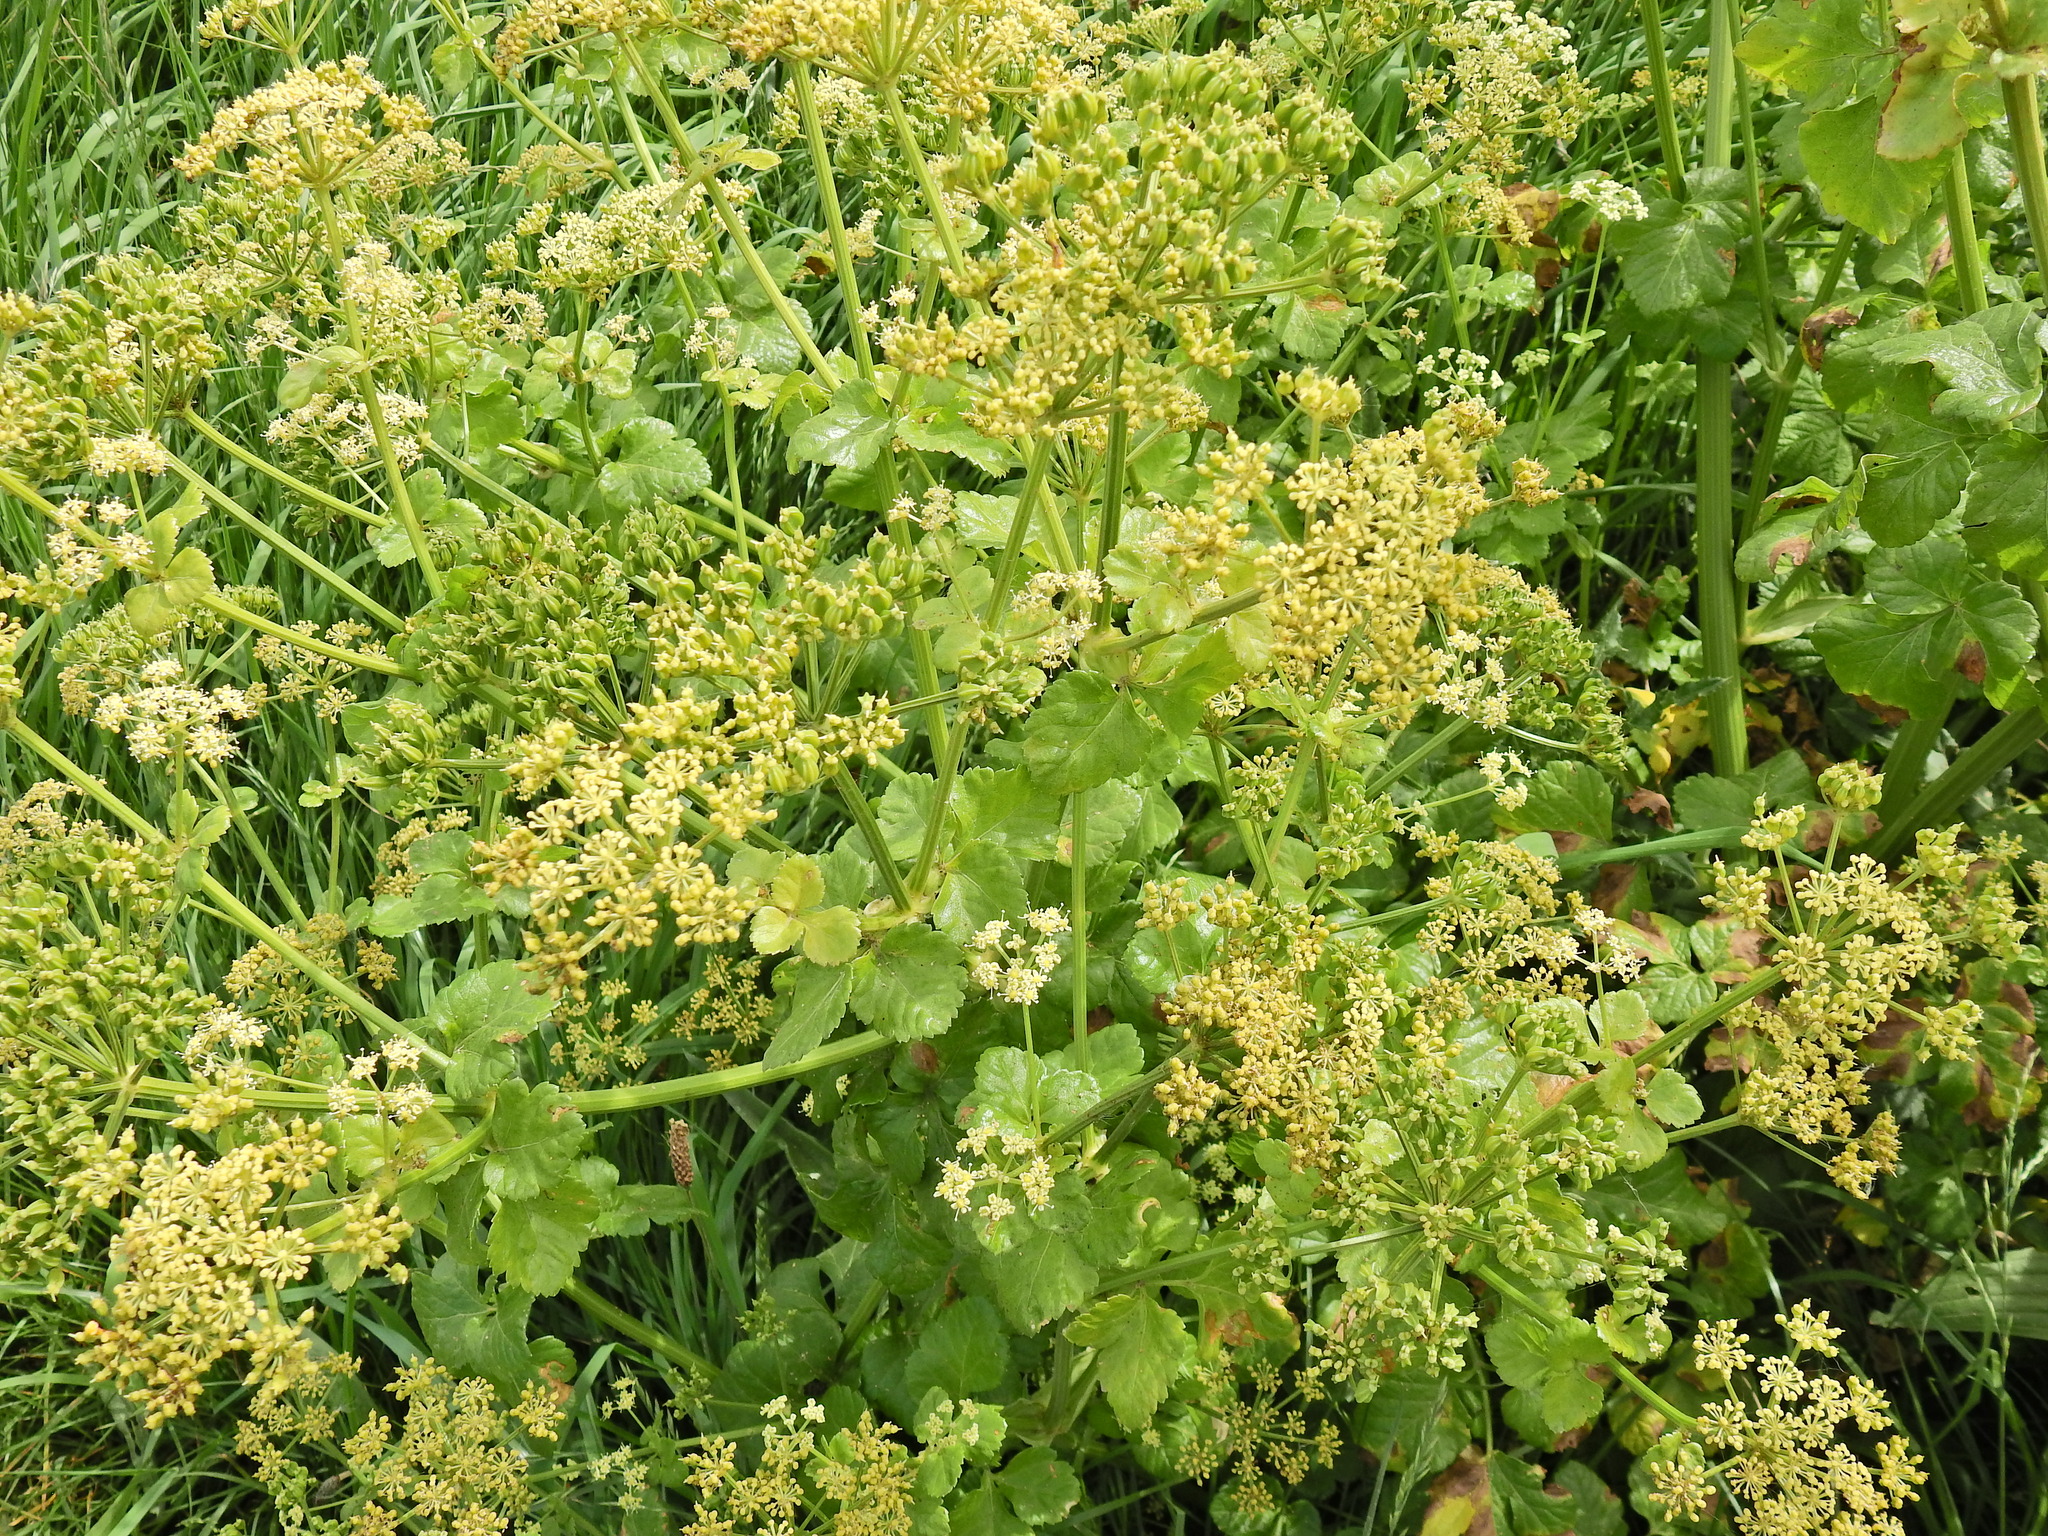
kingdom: Plantae
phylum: Tracheophyta
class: Magnoliopsida
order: Apiales
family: Apiaceae
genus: Smyrnium
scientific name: Smyrnium olusatrum
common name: Alexanders
